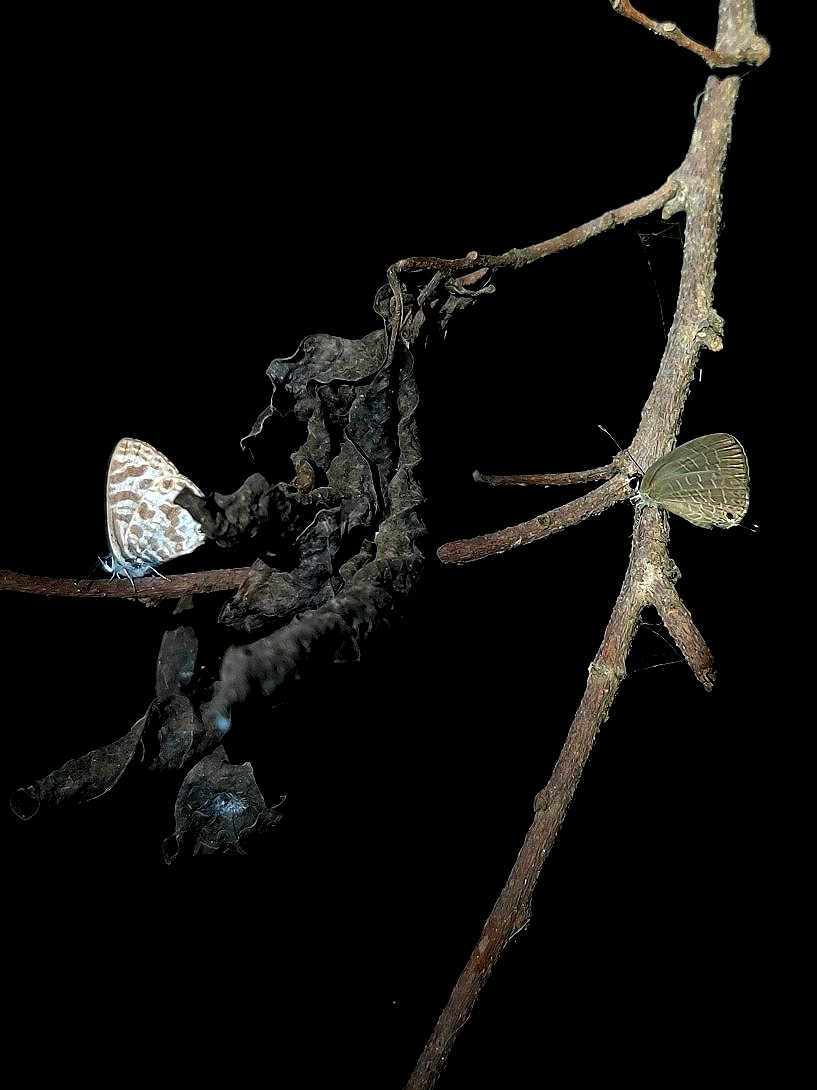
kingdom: Animalia
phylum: Arthropoda
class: Insecta
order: Lepidoptera
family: Lycaenidae
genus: Leptotes
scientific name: Leptotes plinius
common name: Zebra blue
